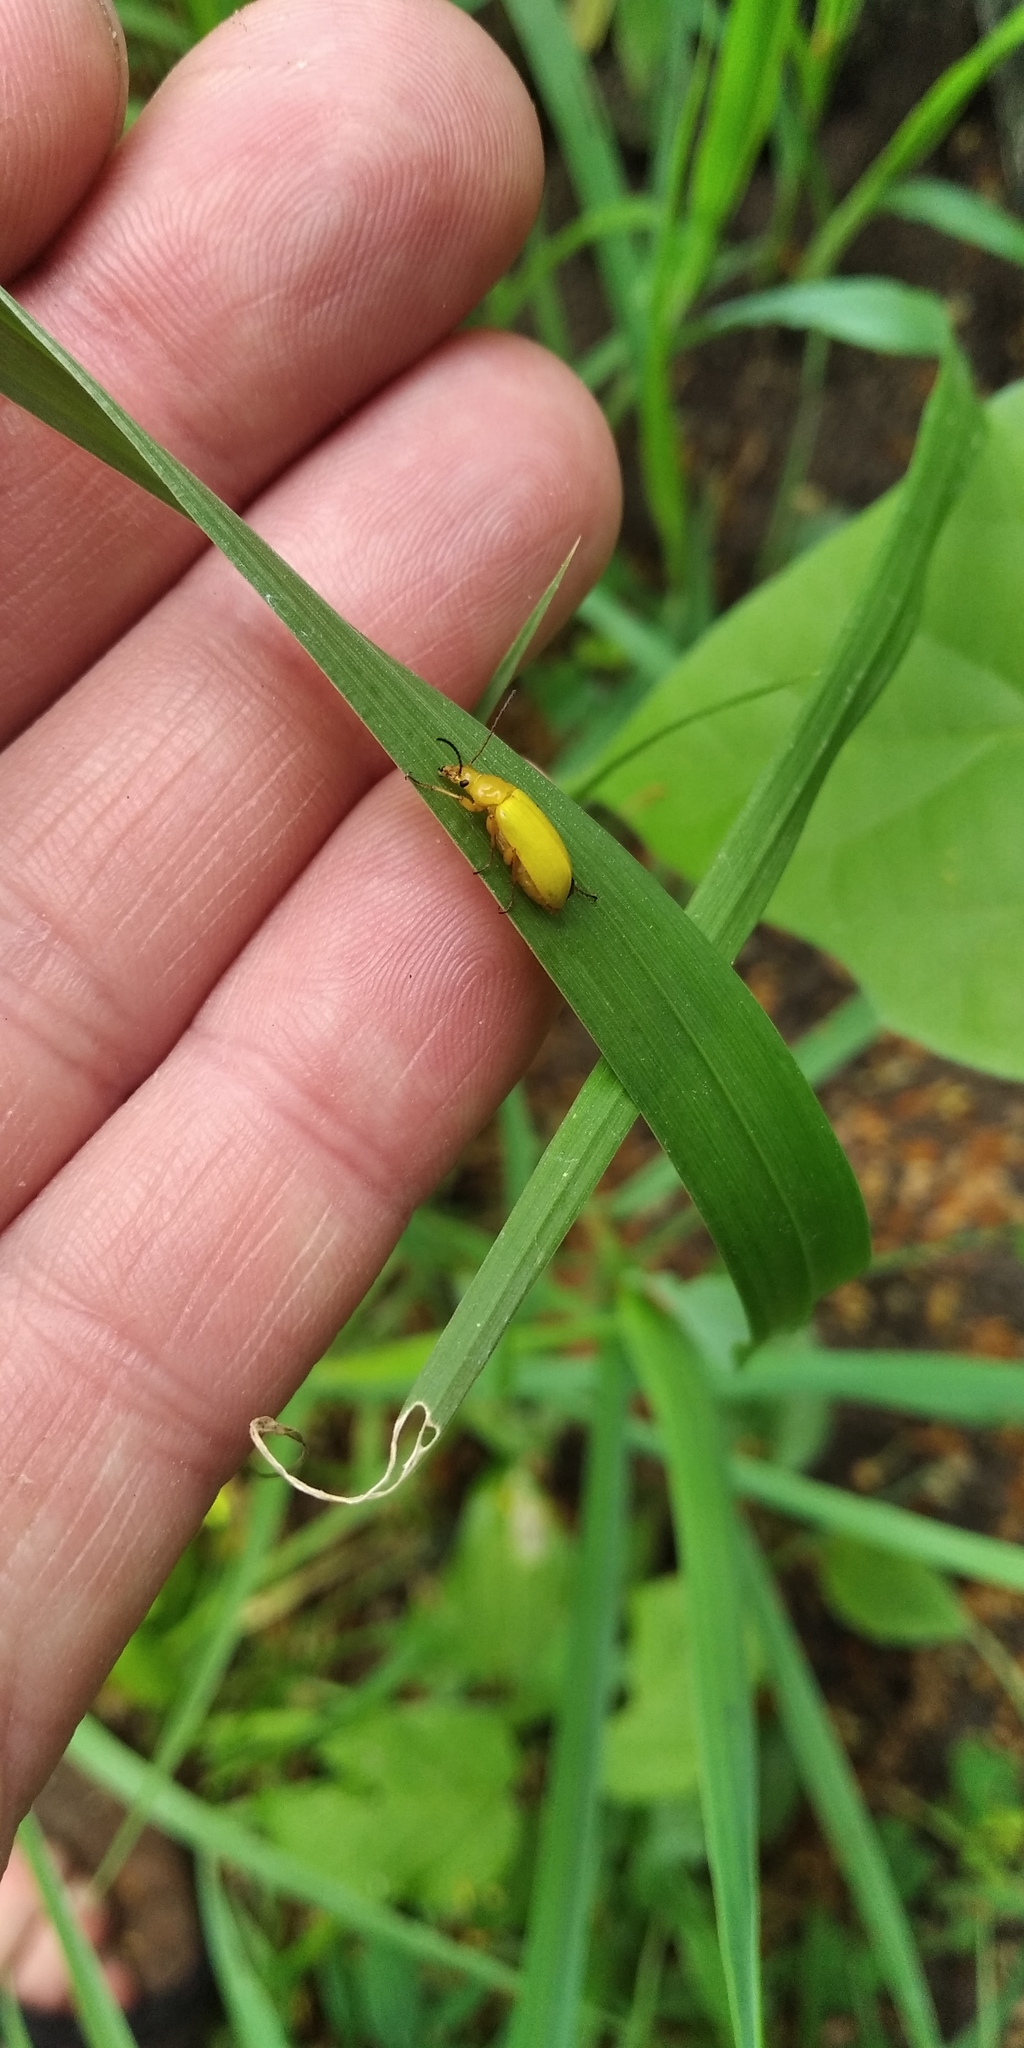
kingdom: Animalia
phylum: Arthropoda
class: Insecta
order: Coleoptera
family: Tenebrionidae
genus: Cteniopus
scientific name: Cteniopus sulphureus
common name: Sulphur beetle
